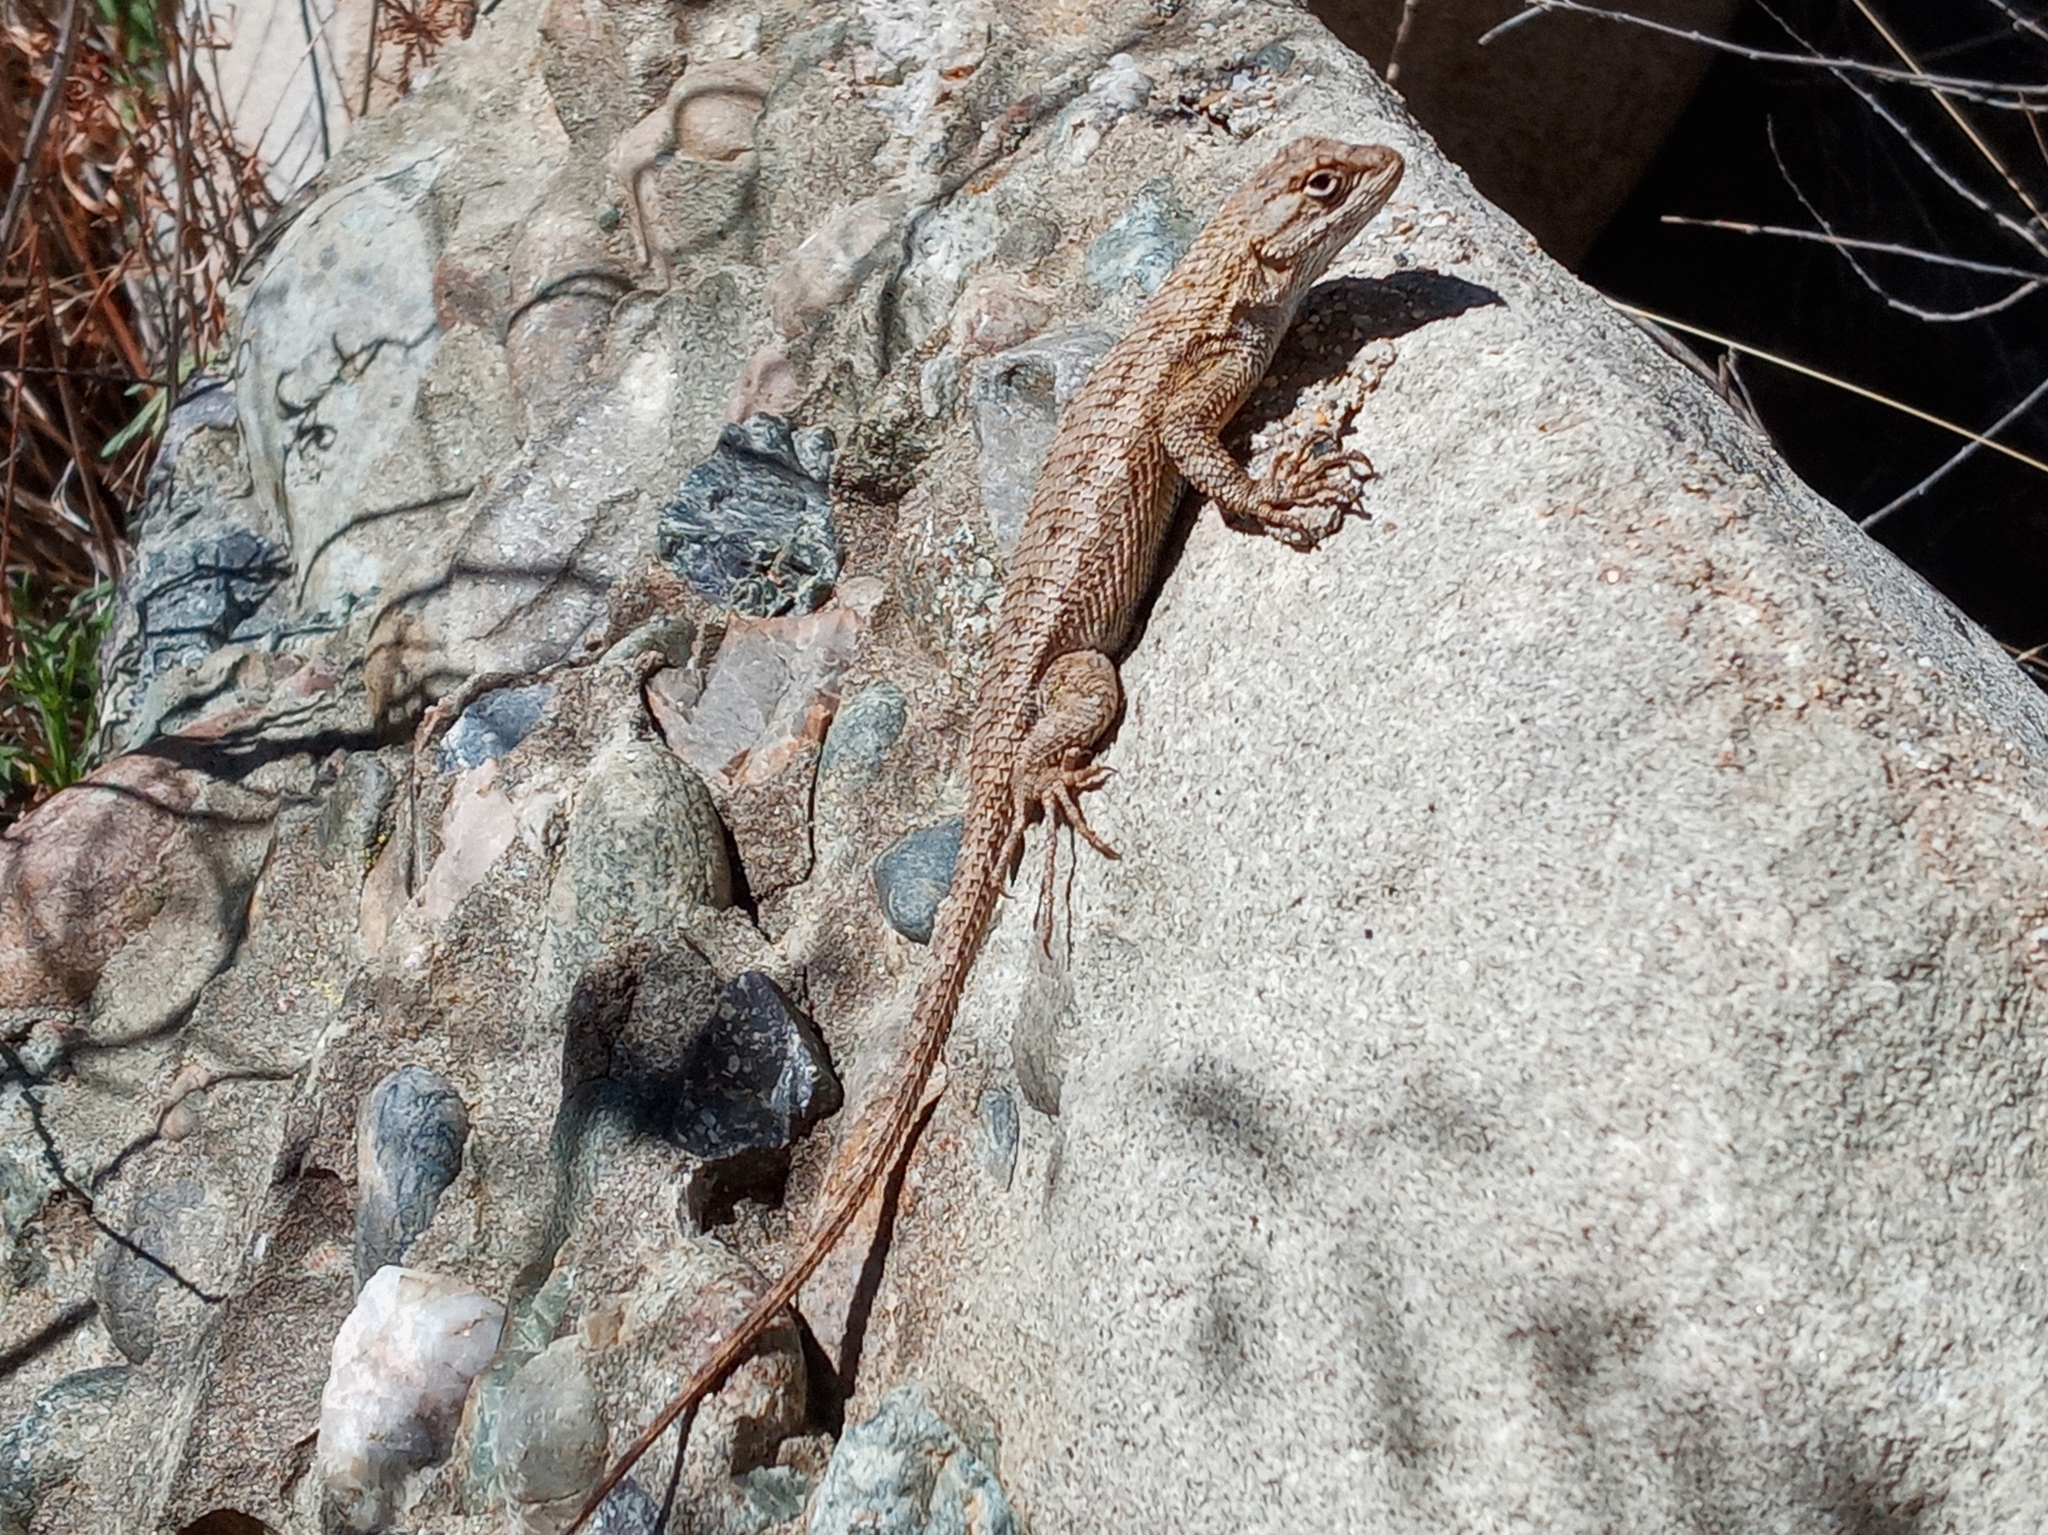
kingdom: Animalia
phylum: Chordata
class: Squamata
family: Phrynosomatidae
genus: Sceloporus
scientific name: Sceloporus occidentalis
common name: Western fence lizard
